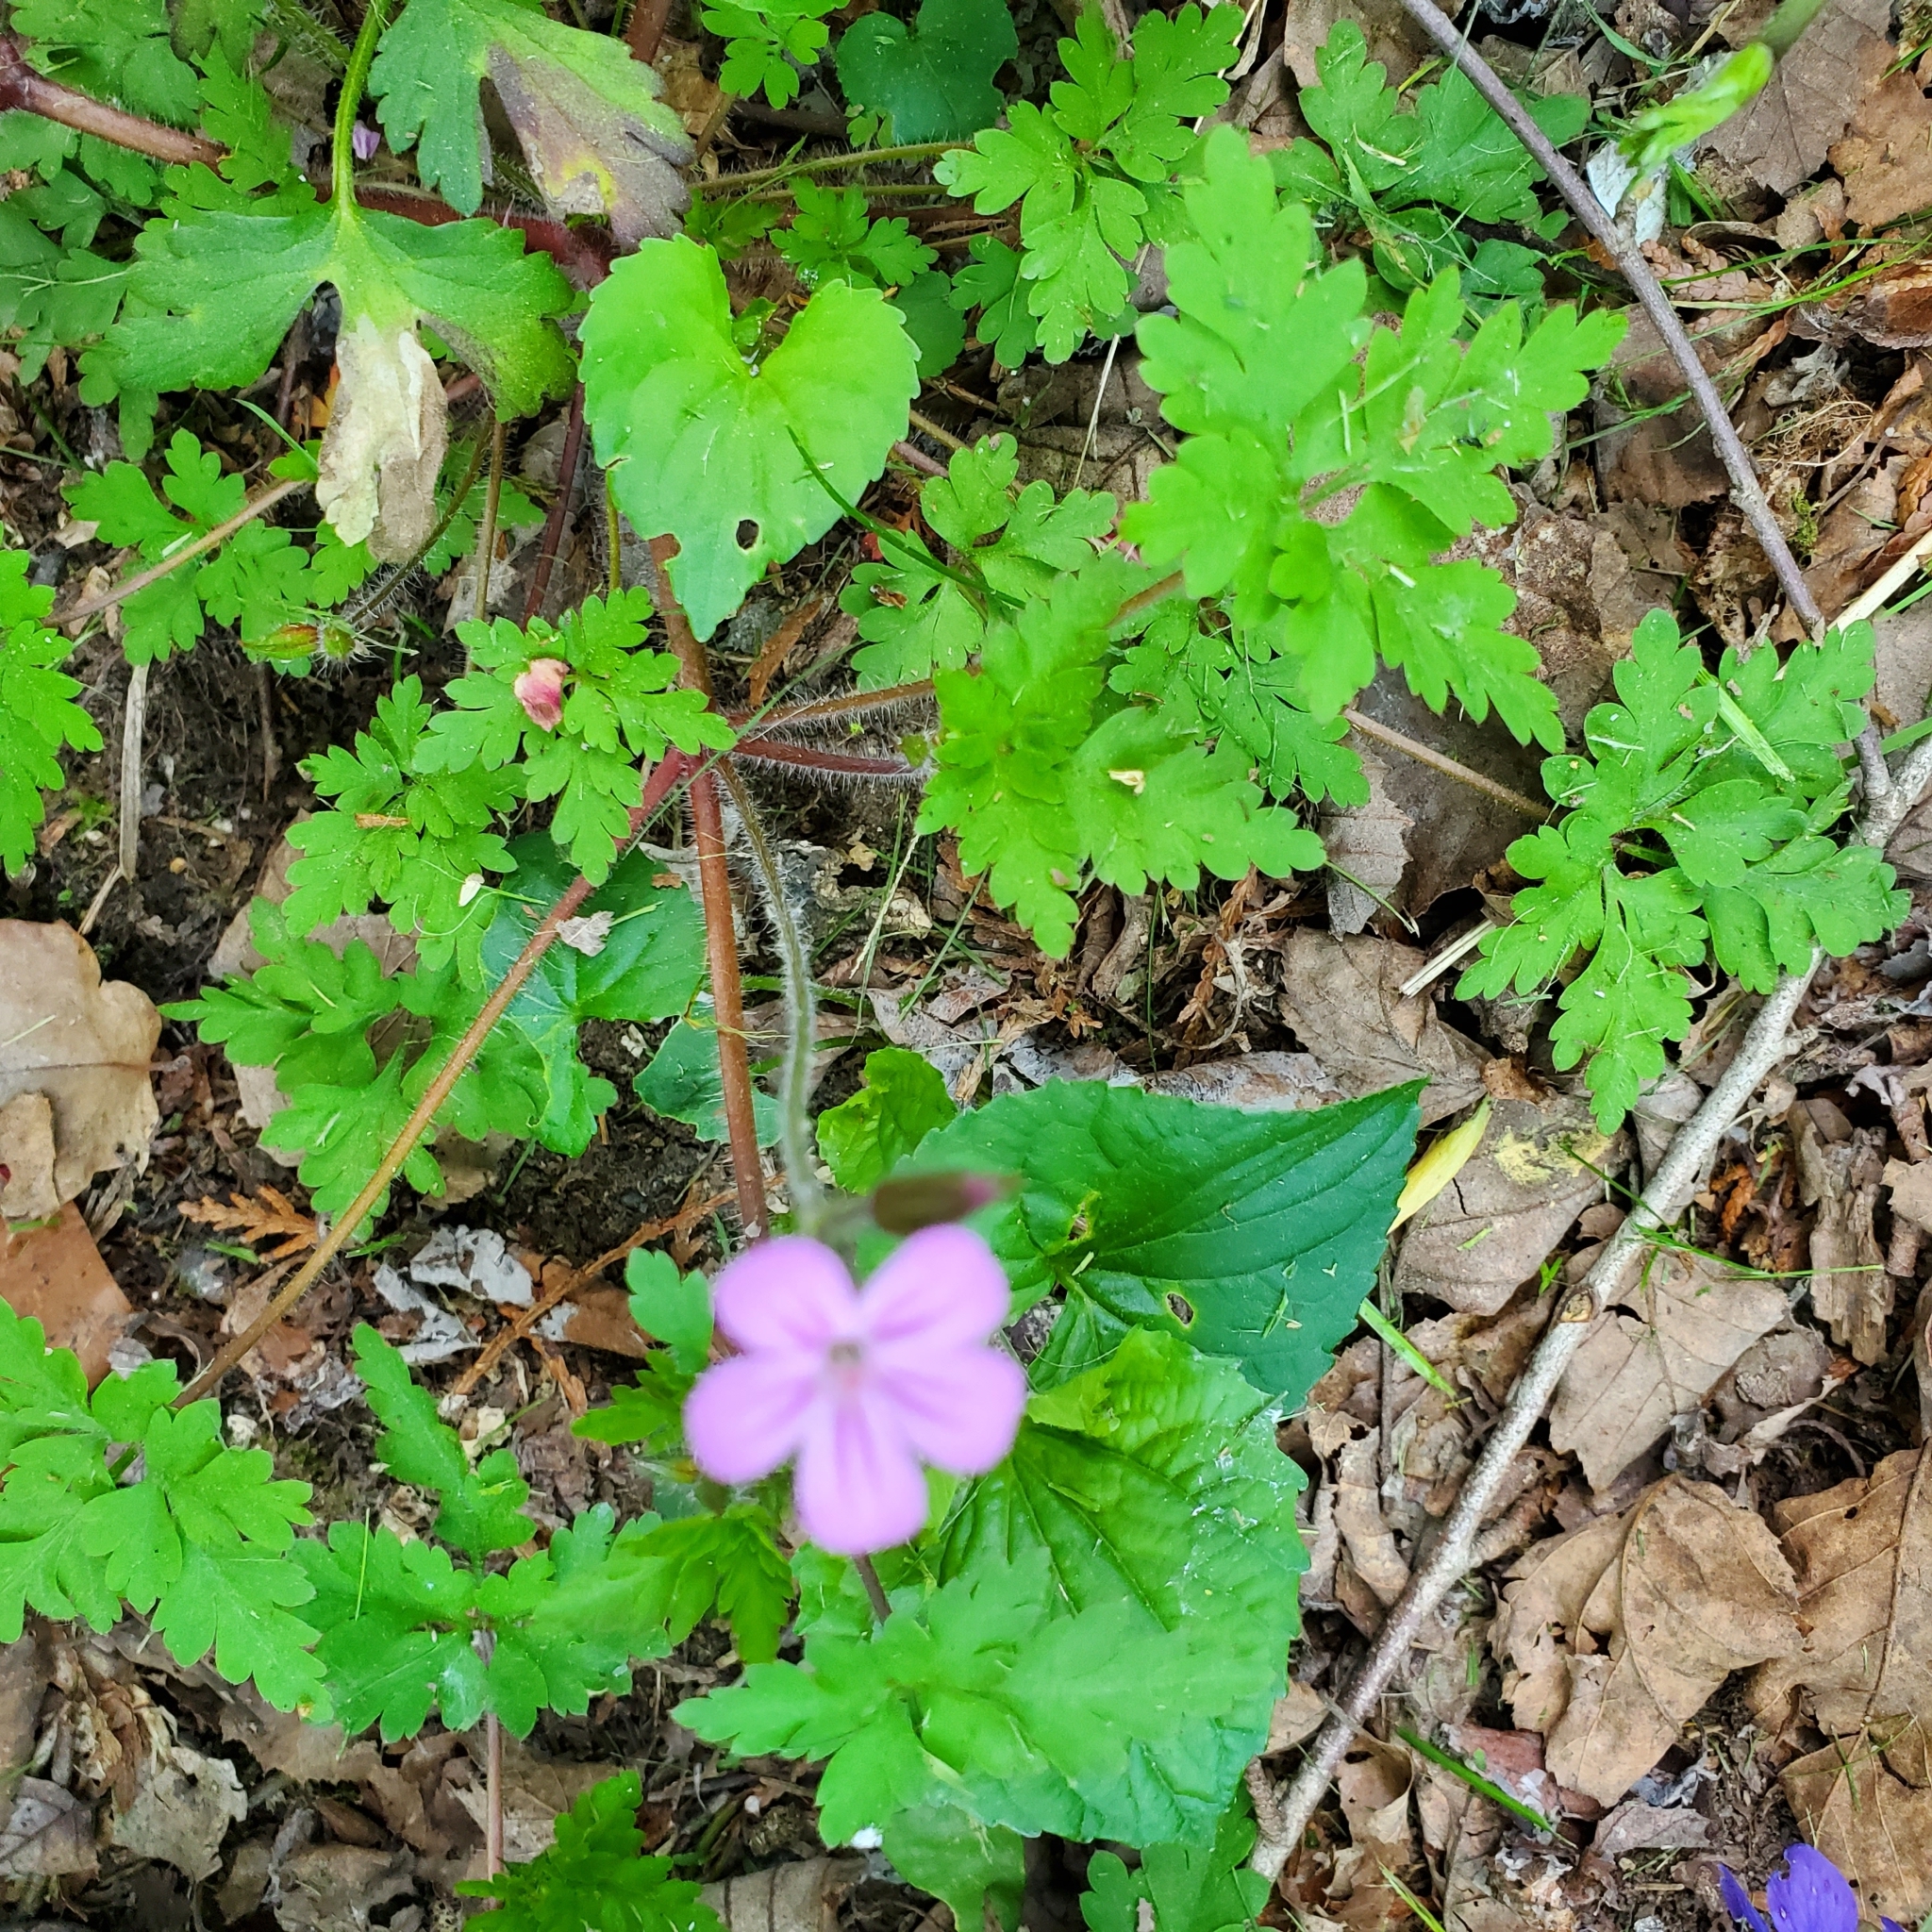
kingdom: Plantae
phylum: Tracheophyta
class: Magnoliopsida
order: Geraniales
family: Geraniaceae
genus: Geranium
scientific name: Geranium robertianum
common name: Herb-robert
